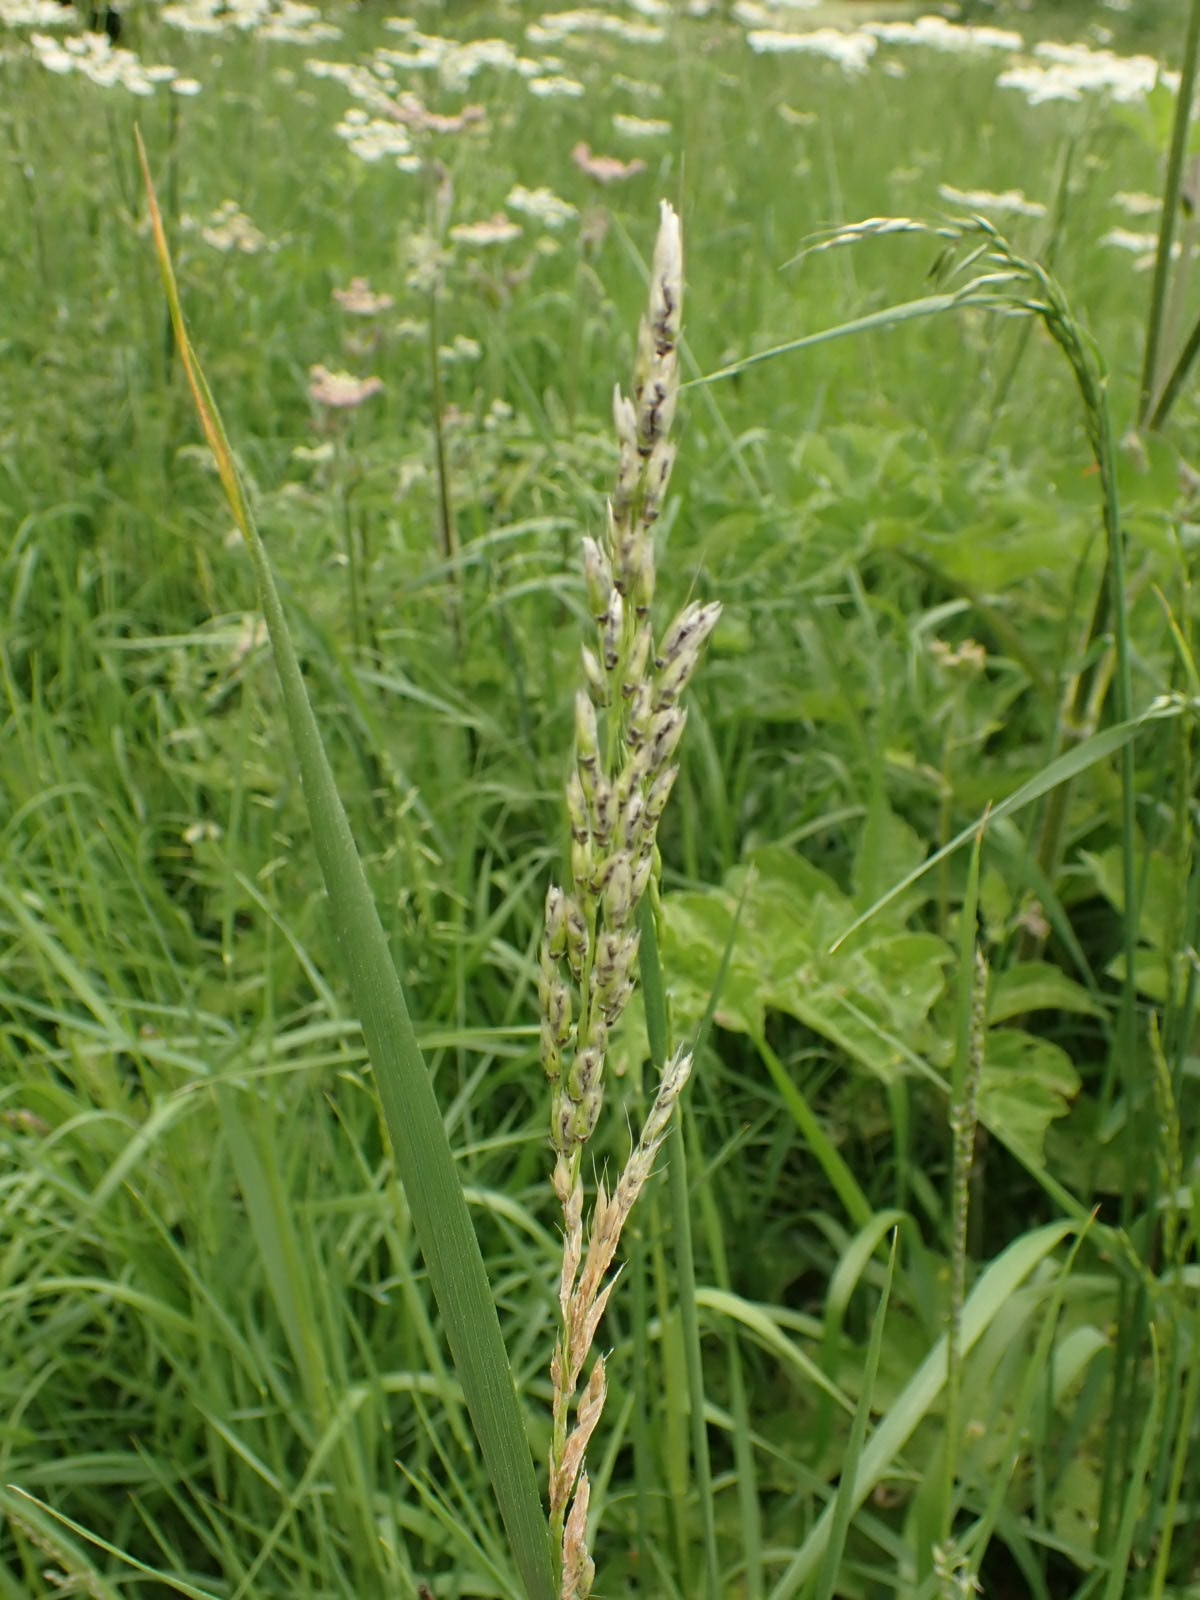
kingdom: Fungi
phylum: Basidiomycota
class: Ustilaginomycetes
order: Ustilaginales
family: Ustilaginaceae
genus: Ustilago
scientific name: Ustilago avenae
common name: Loose smut of oats & oat grass
